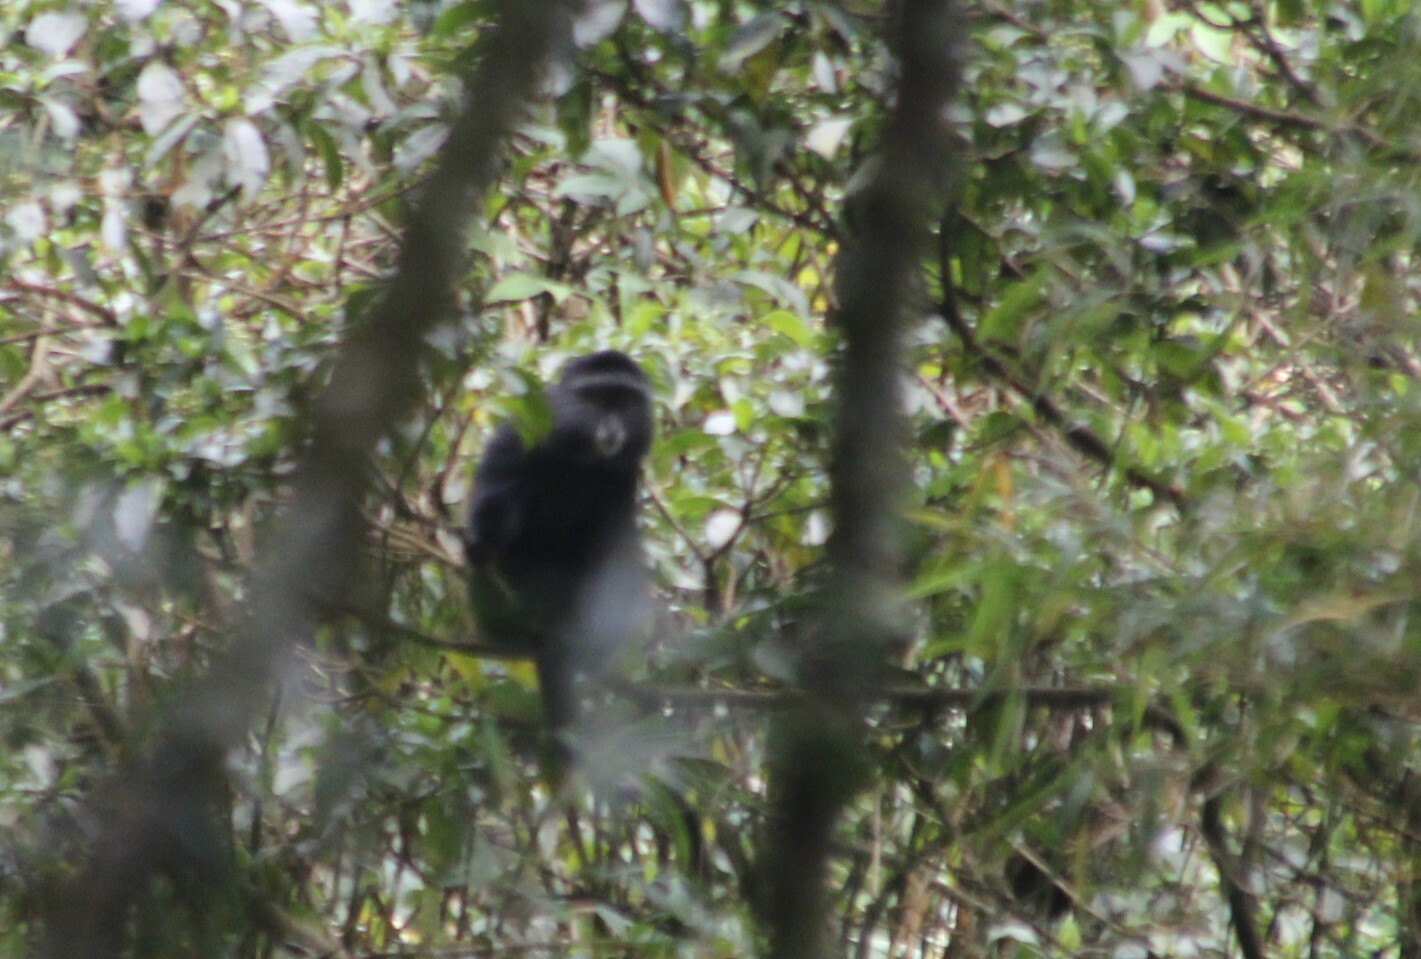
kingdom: Animalia
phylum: Chordata
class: Mammalia
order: Primates
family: Cercopithecidae
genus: Cercopithecus
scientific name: Cercopithecus mitis
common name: Blue monkey
